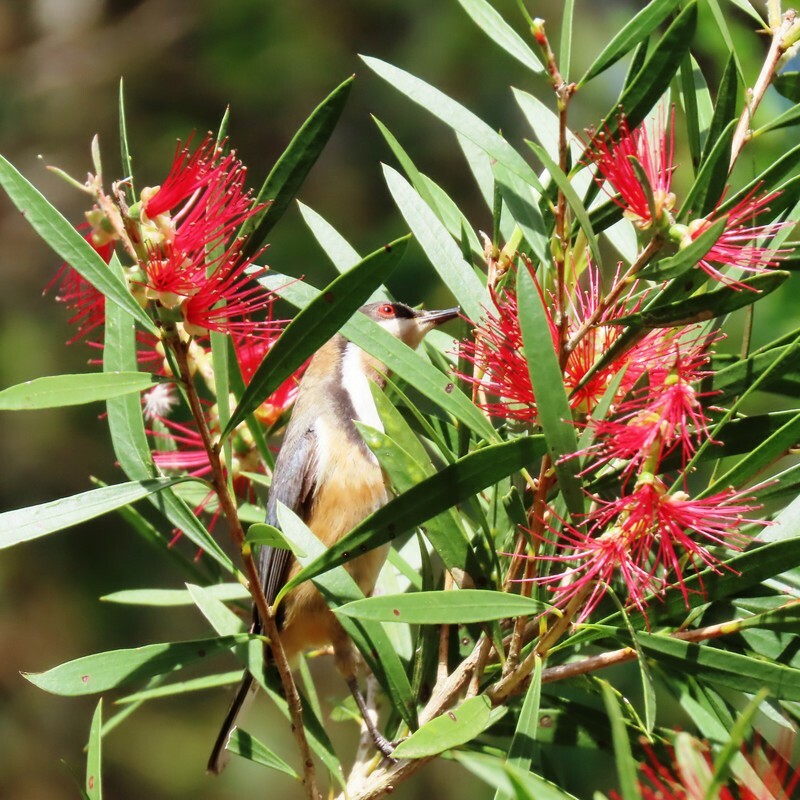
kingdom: Animalia
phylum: Chordata
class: Aves
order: Passeriformes
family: Meliphagidae
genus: Acanthorhynchus
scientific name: Acanthorhynchus tenuirostris
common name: Eastern spinebill
